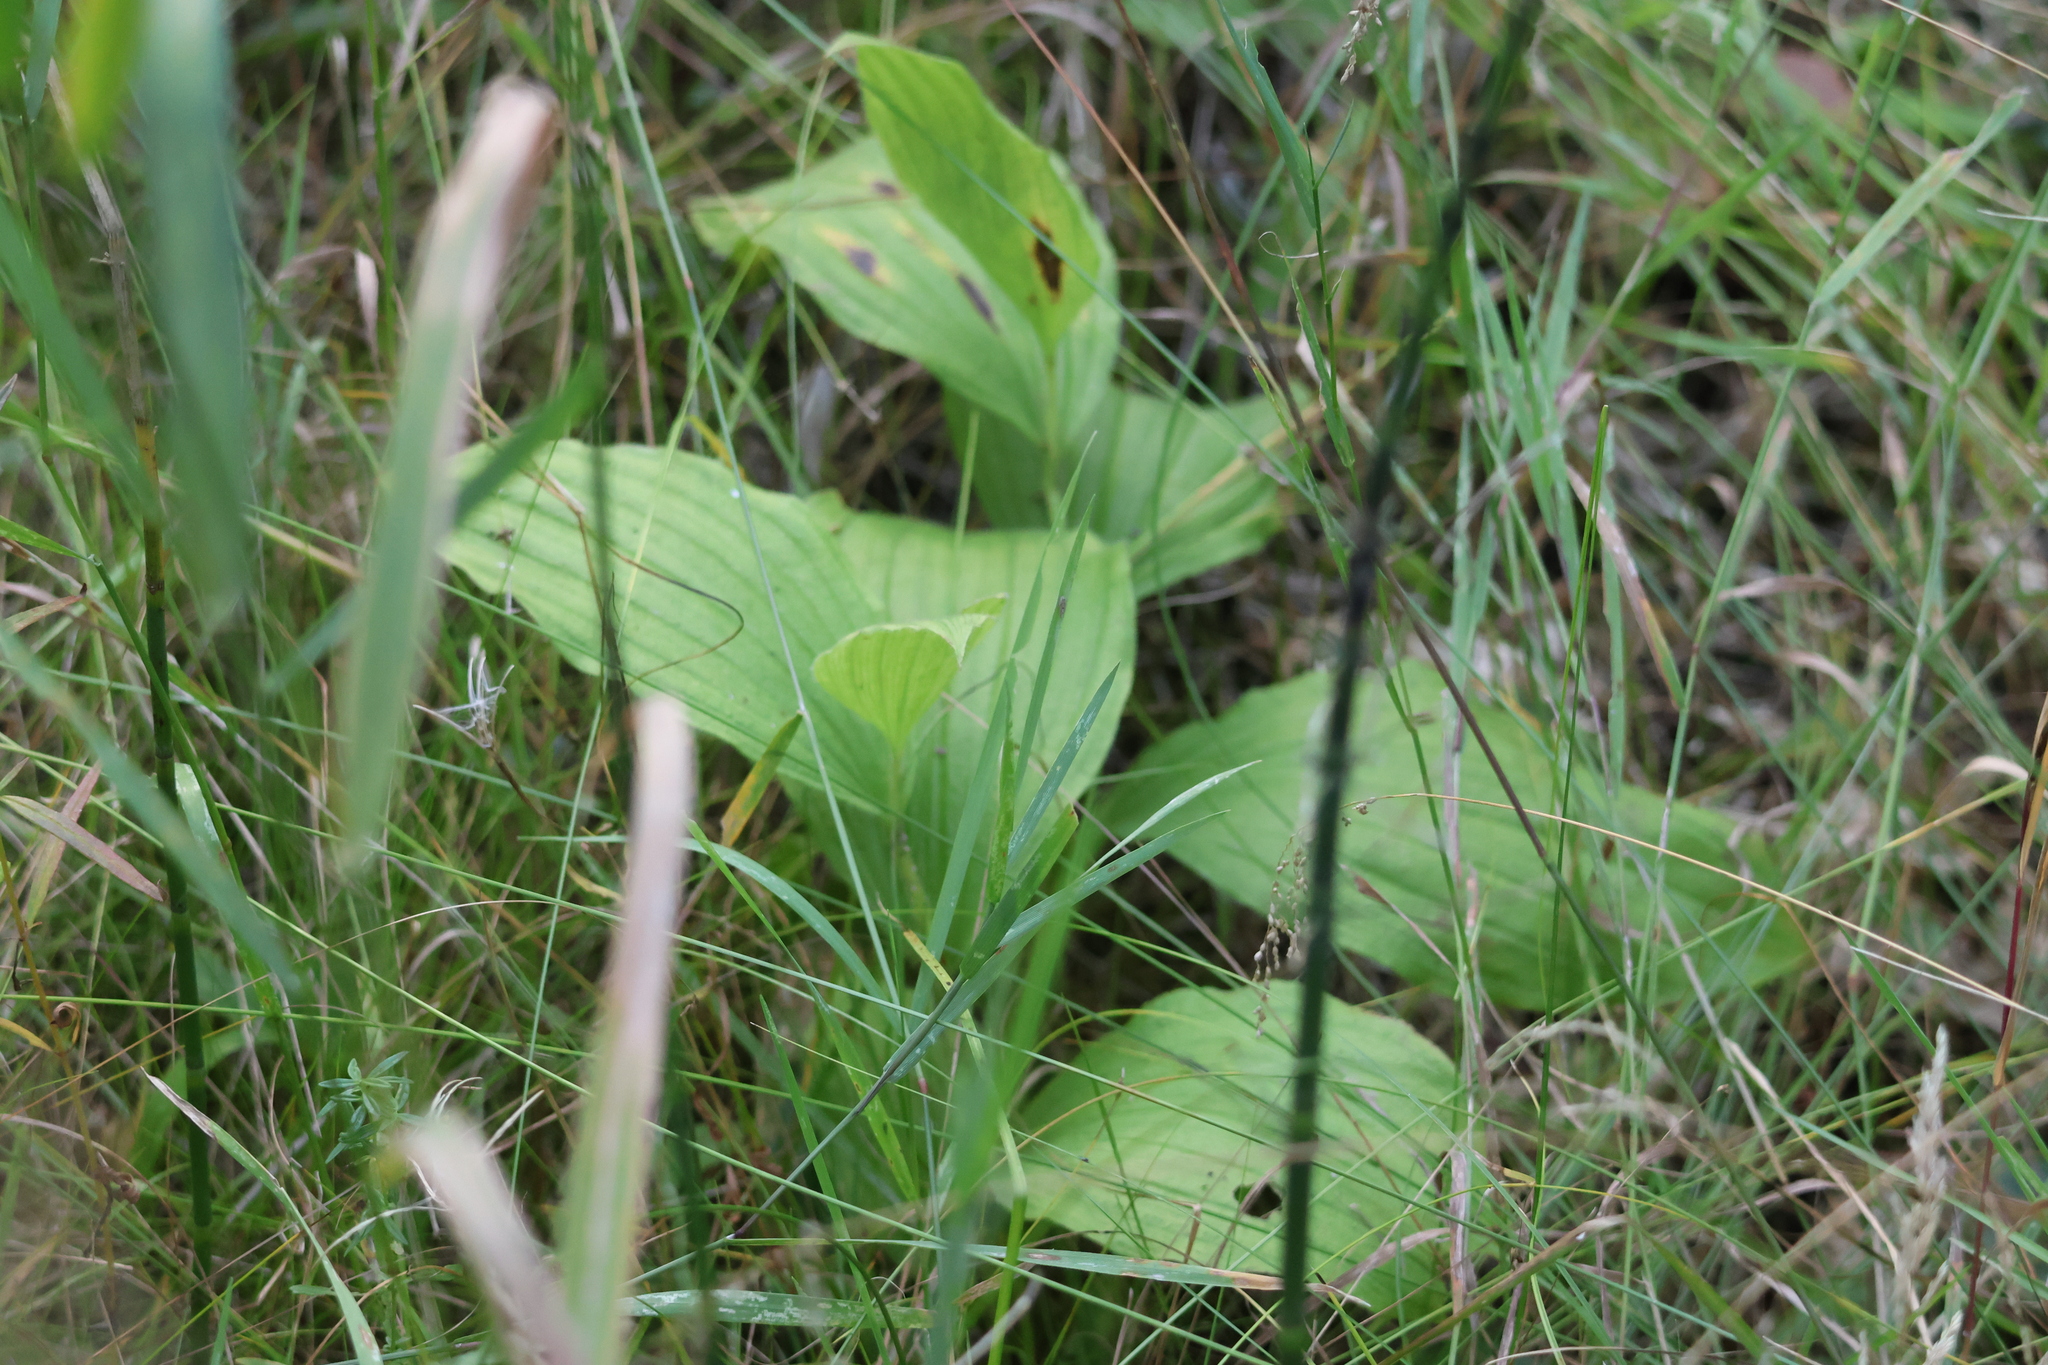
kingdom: Plantae
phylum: Tracheophyta
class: Liliopsida
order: Asparagales
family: Orchidaceae
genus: Cypripedium
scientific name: Cypripedium reginae
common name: Queen lady's-slipper
